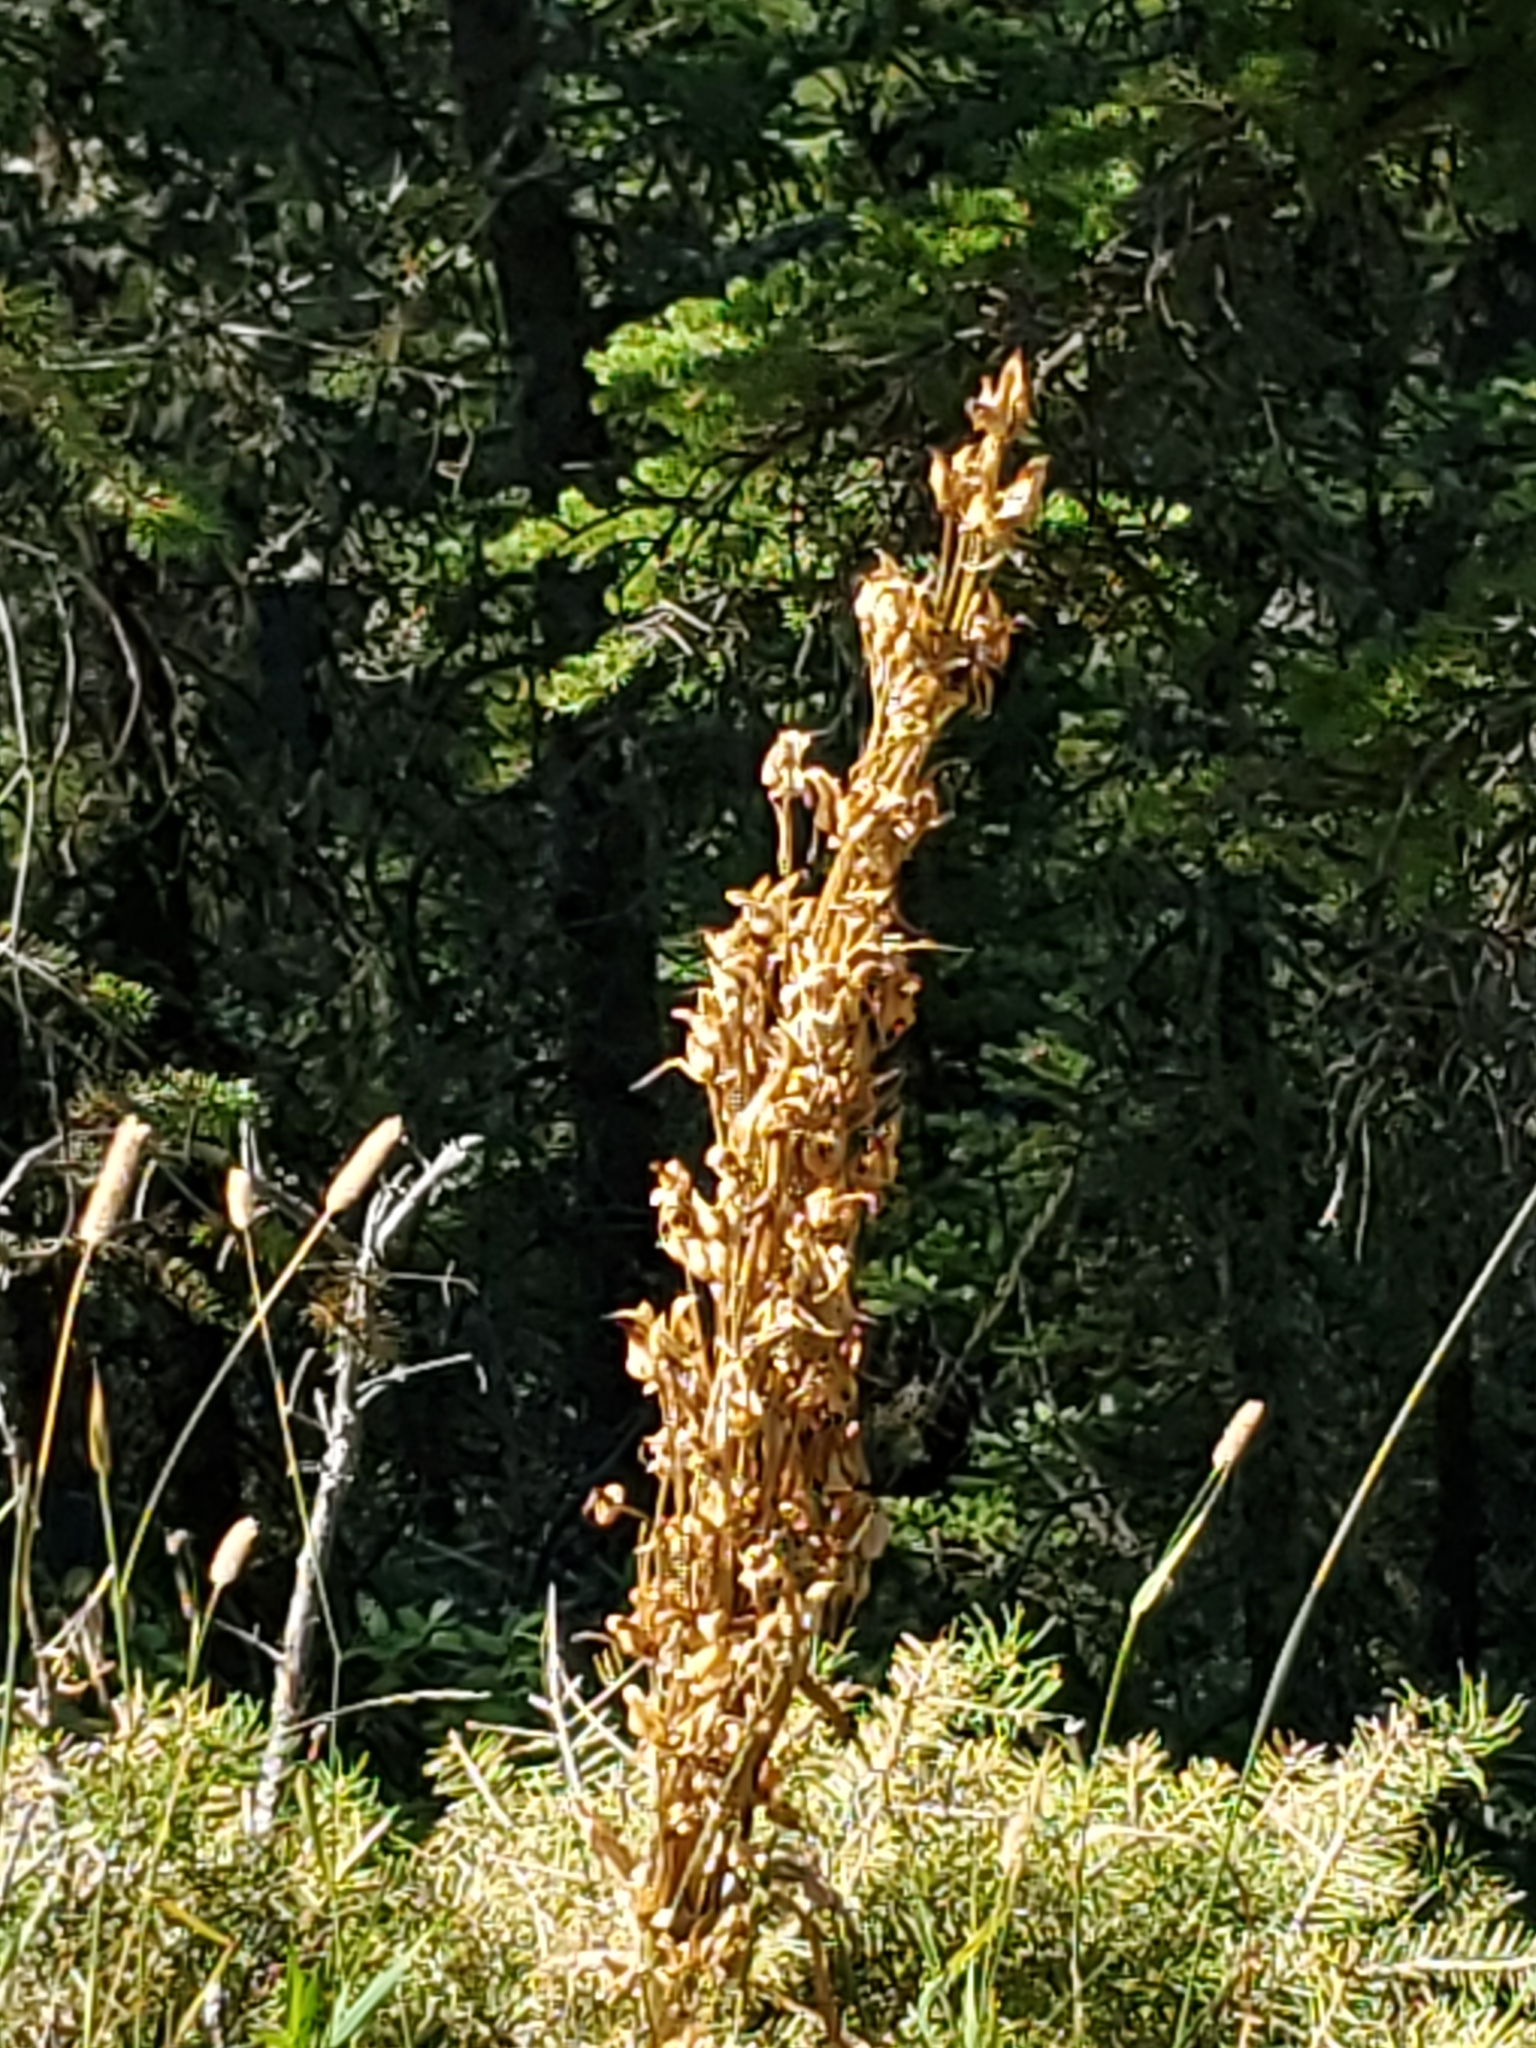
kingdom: Plantae
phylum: Tracheophyta
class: Magnoliopsida
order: Gentianales
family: Gentianaceae
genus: Frasera
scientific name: Frasera speciosa
